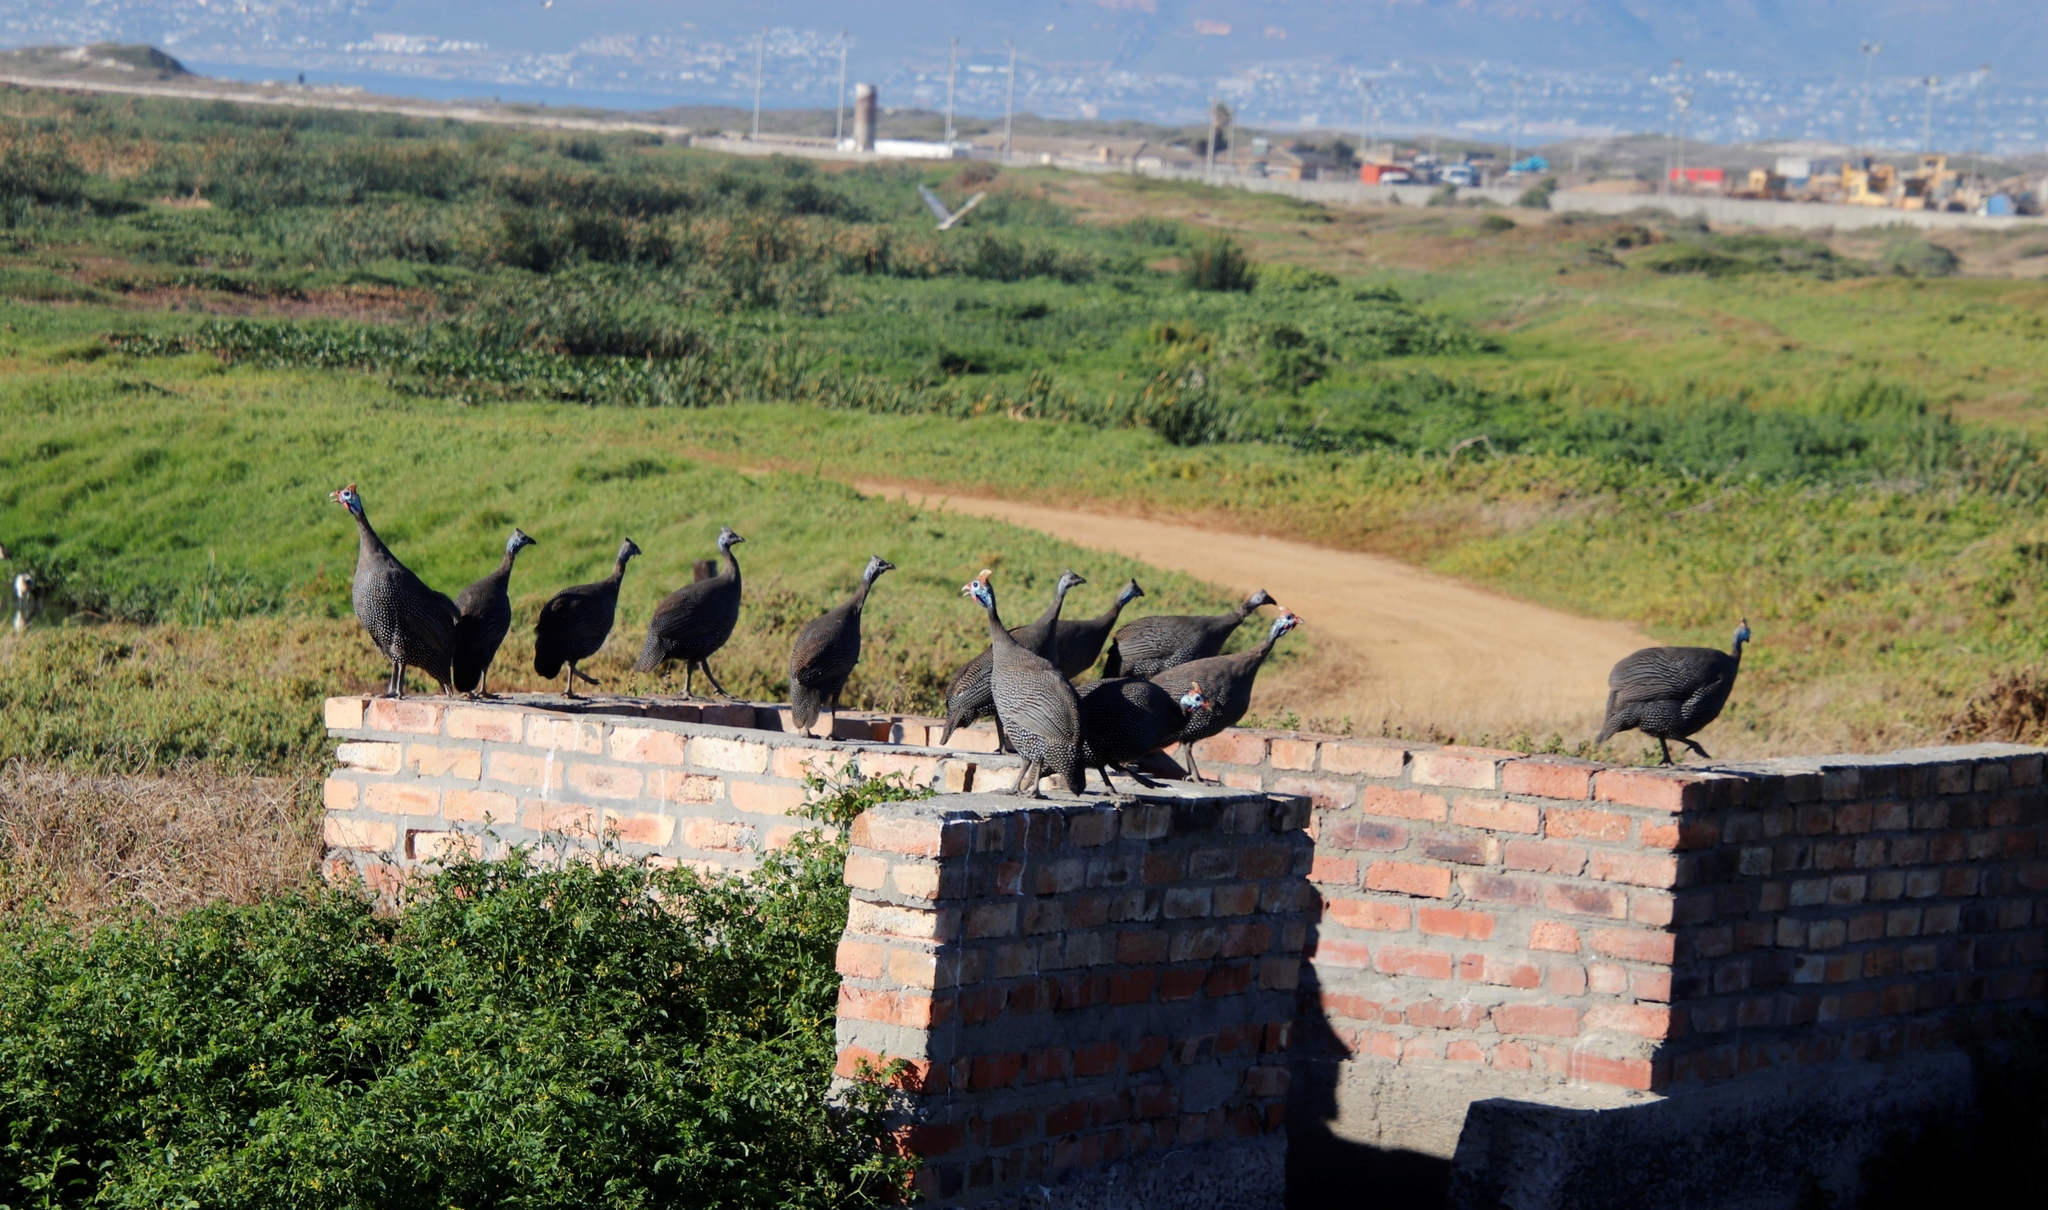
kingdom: Animalia
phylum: Chordata
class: Aves
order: Galliformes
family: Numididae
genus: Numida
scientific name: Numida meleagris
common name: Helmeted guineafowl
